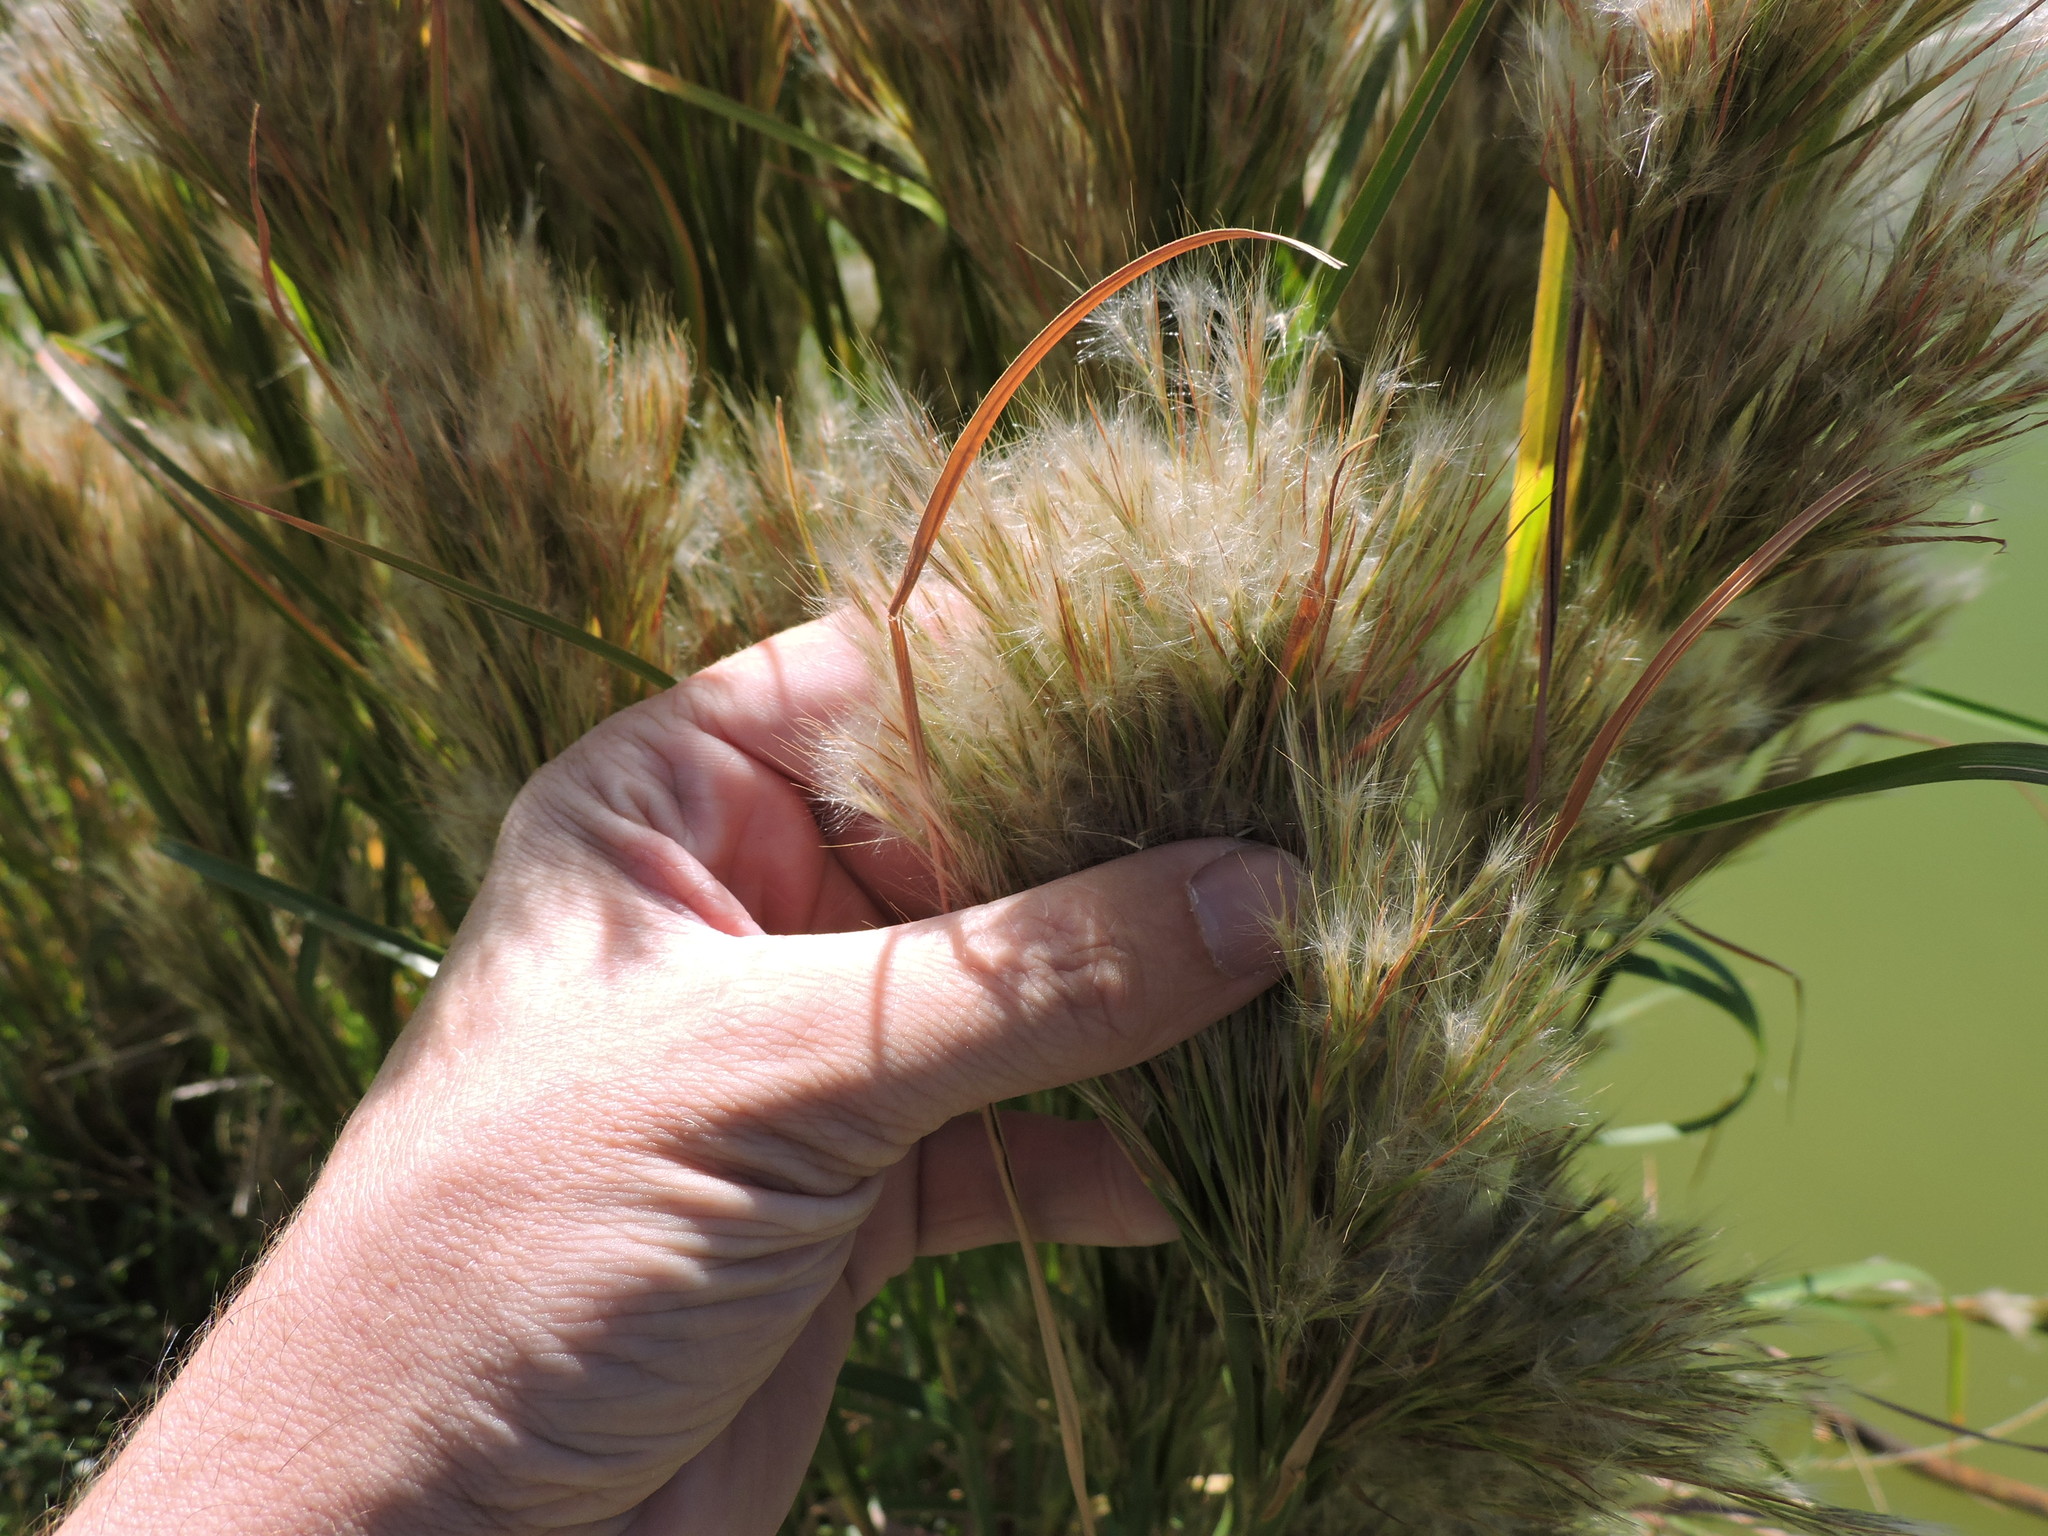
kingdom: Plantae
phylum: Tracheophyta
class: Liliopsida
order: Poales
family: Poaceae
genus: Andropogon
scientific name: Andropogon tenuispatheus
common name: Bushy bluestem
